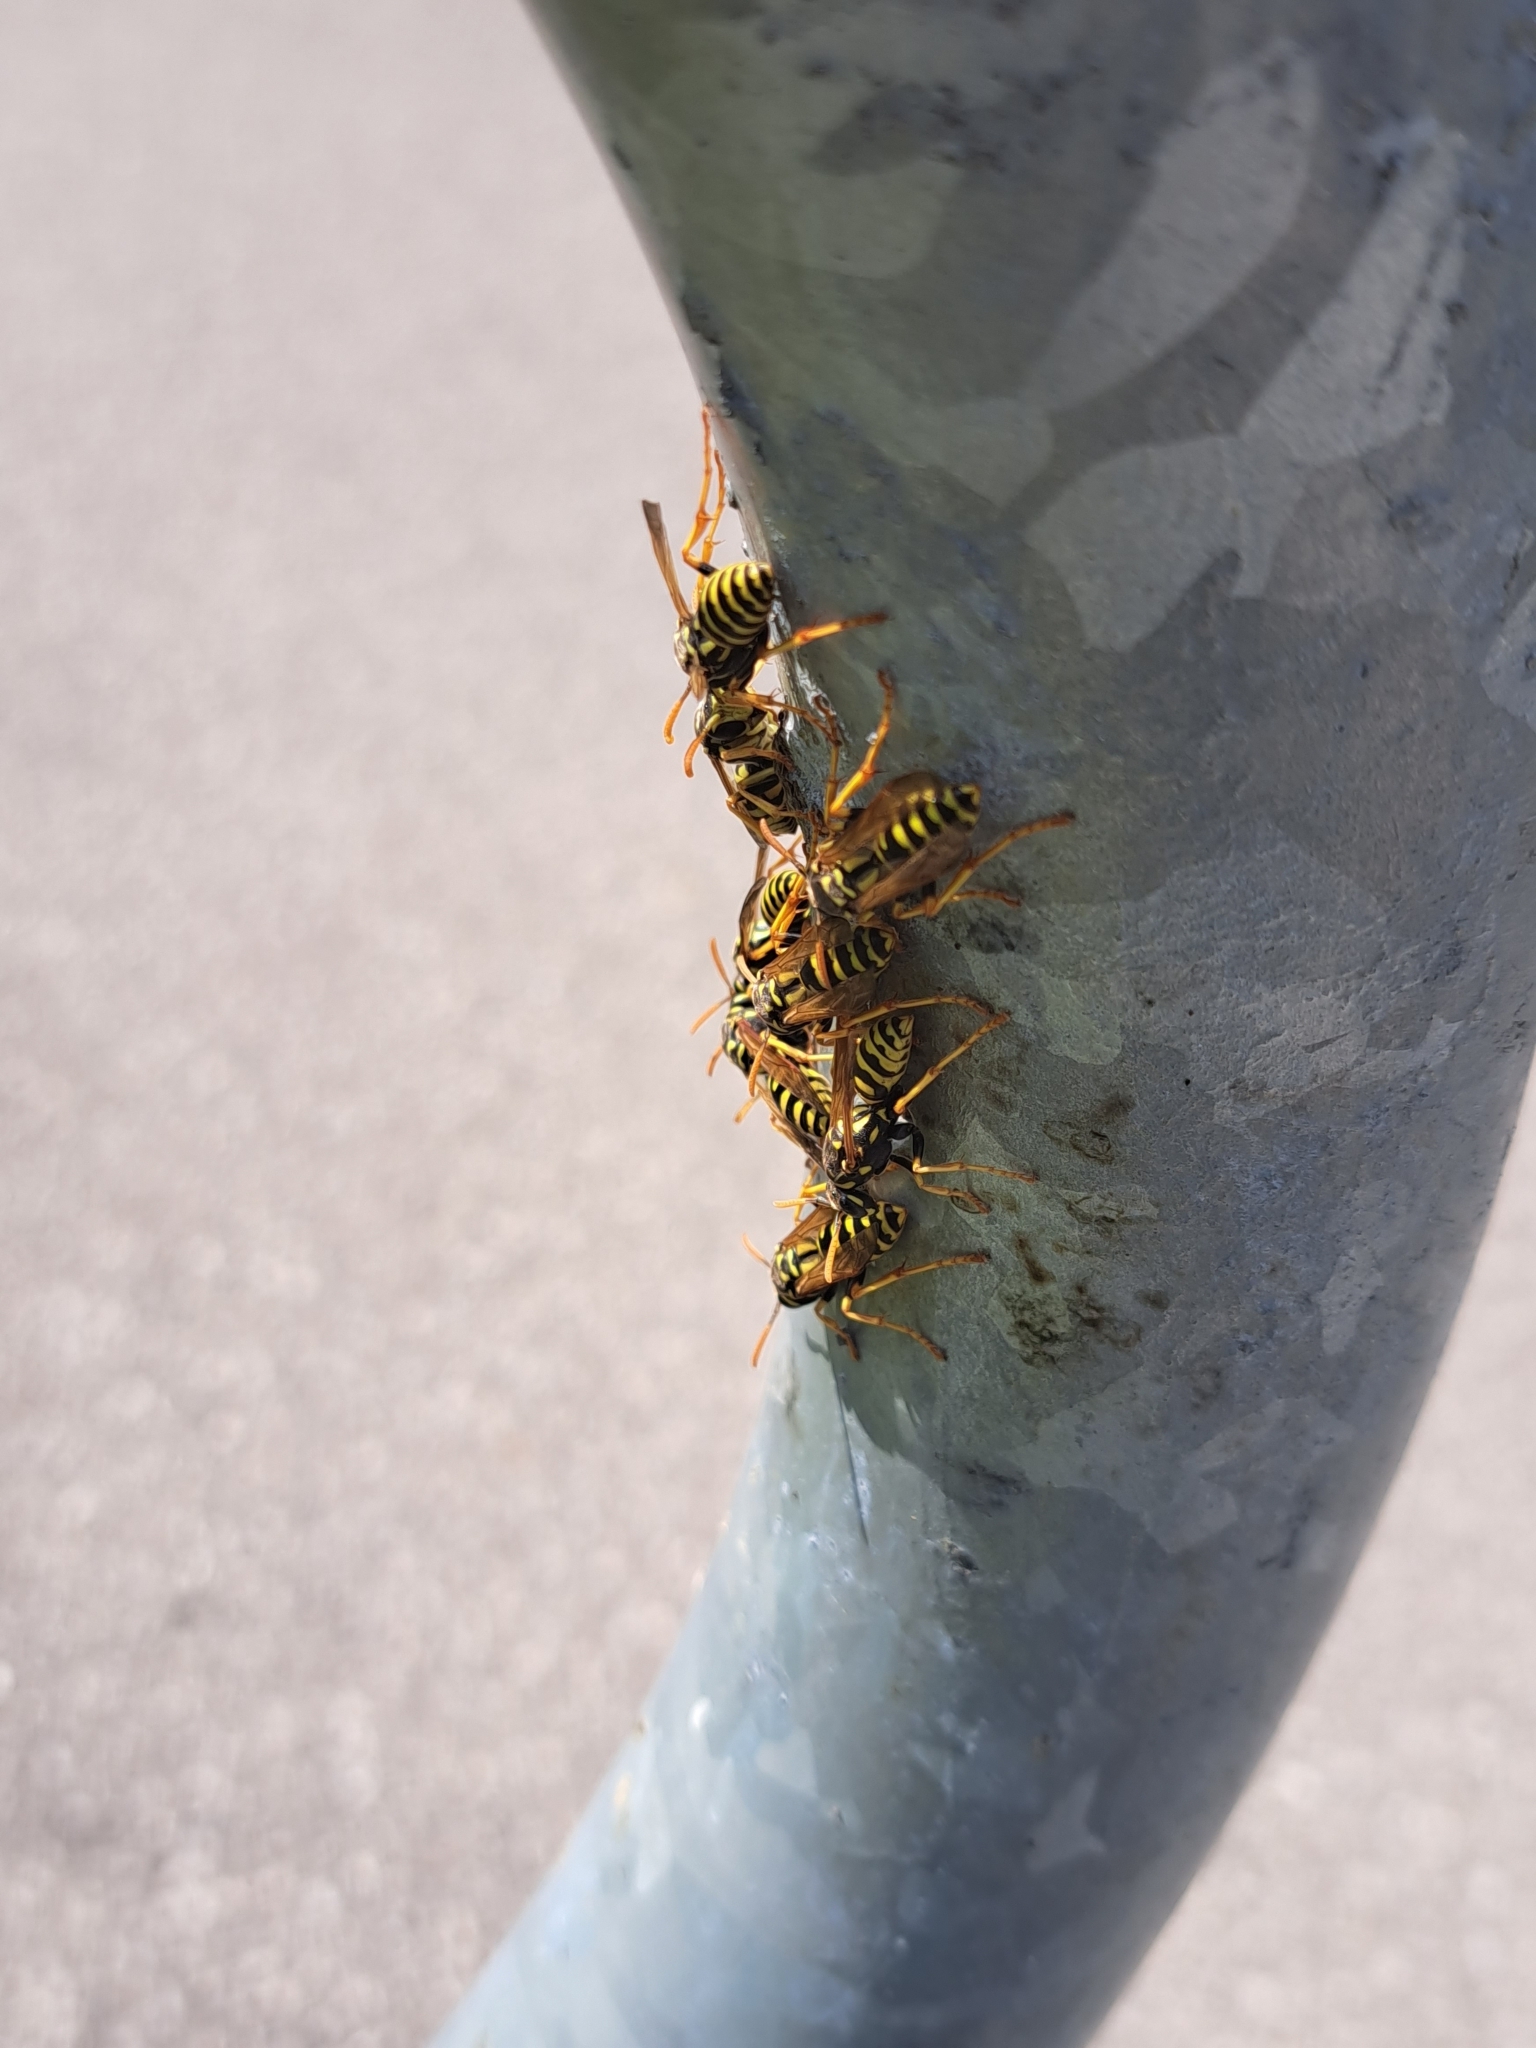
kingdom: Animalia
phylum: Arthropoda
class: Insecta
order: Hymenoptera
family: Eumenidae
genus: Polistes
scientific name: Polistes dominula
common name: Paper wasp
